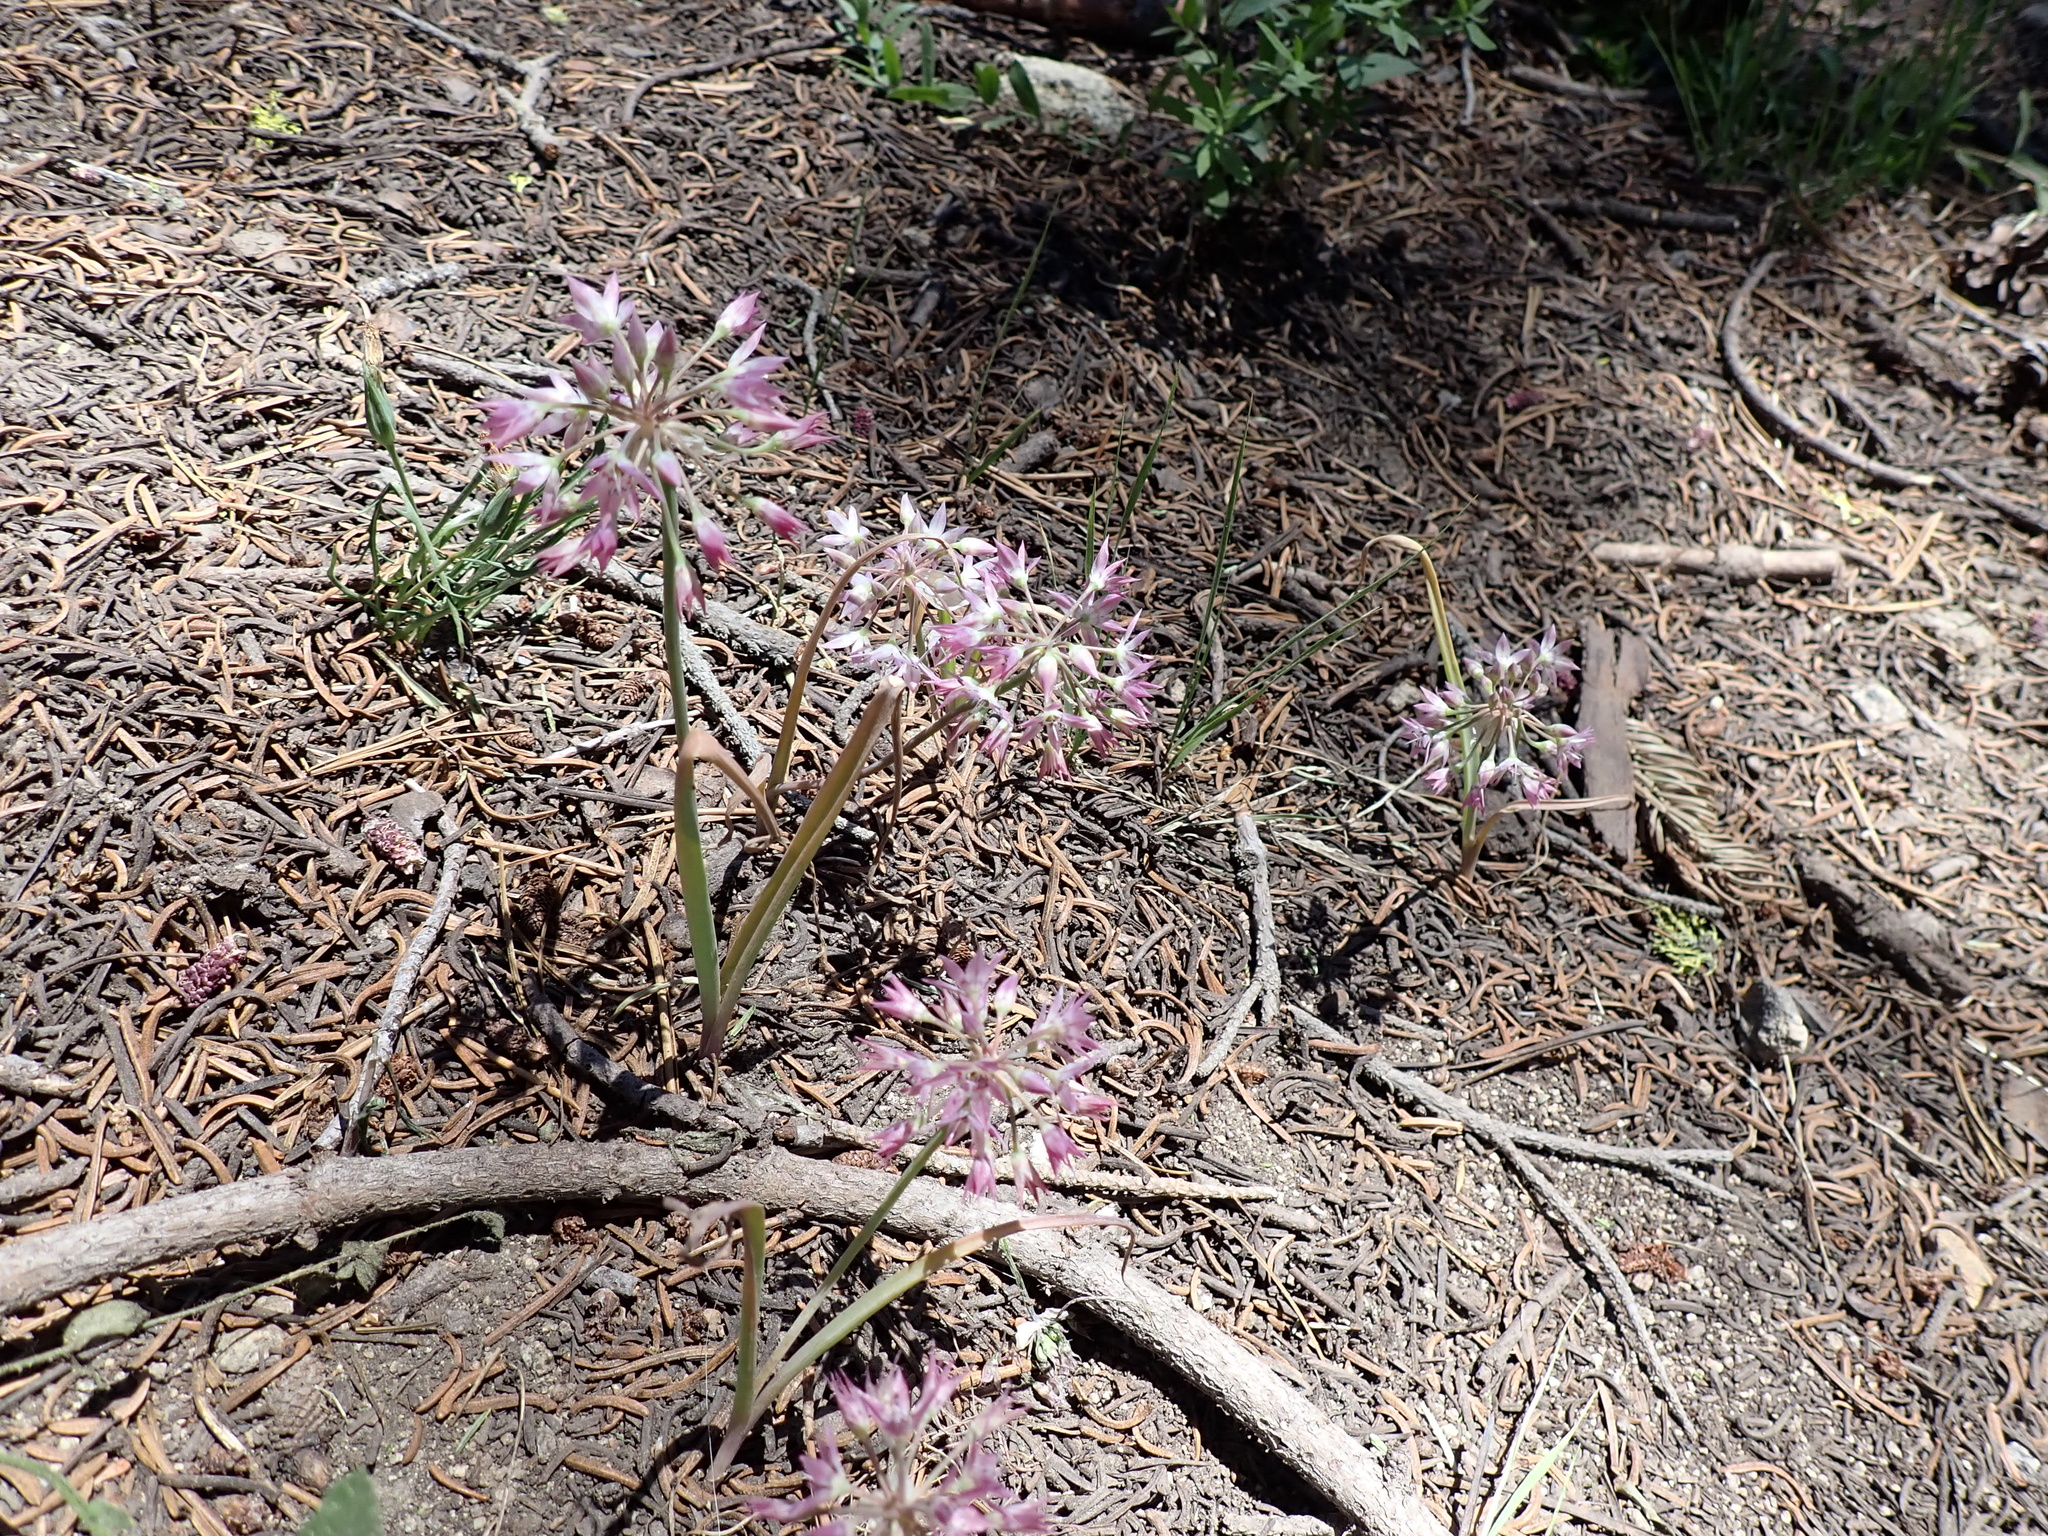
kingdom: Plantae
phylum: Tracheophyta
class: Liliopsida
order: Asparagales
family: Amaryllidaceae
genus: Allium
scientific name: Allium campanulatum
